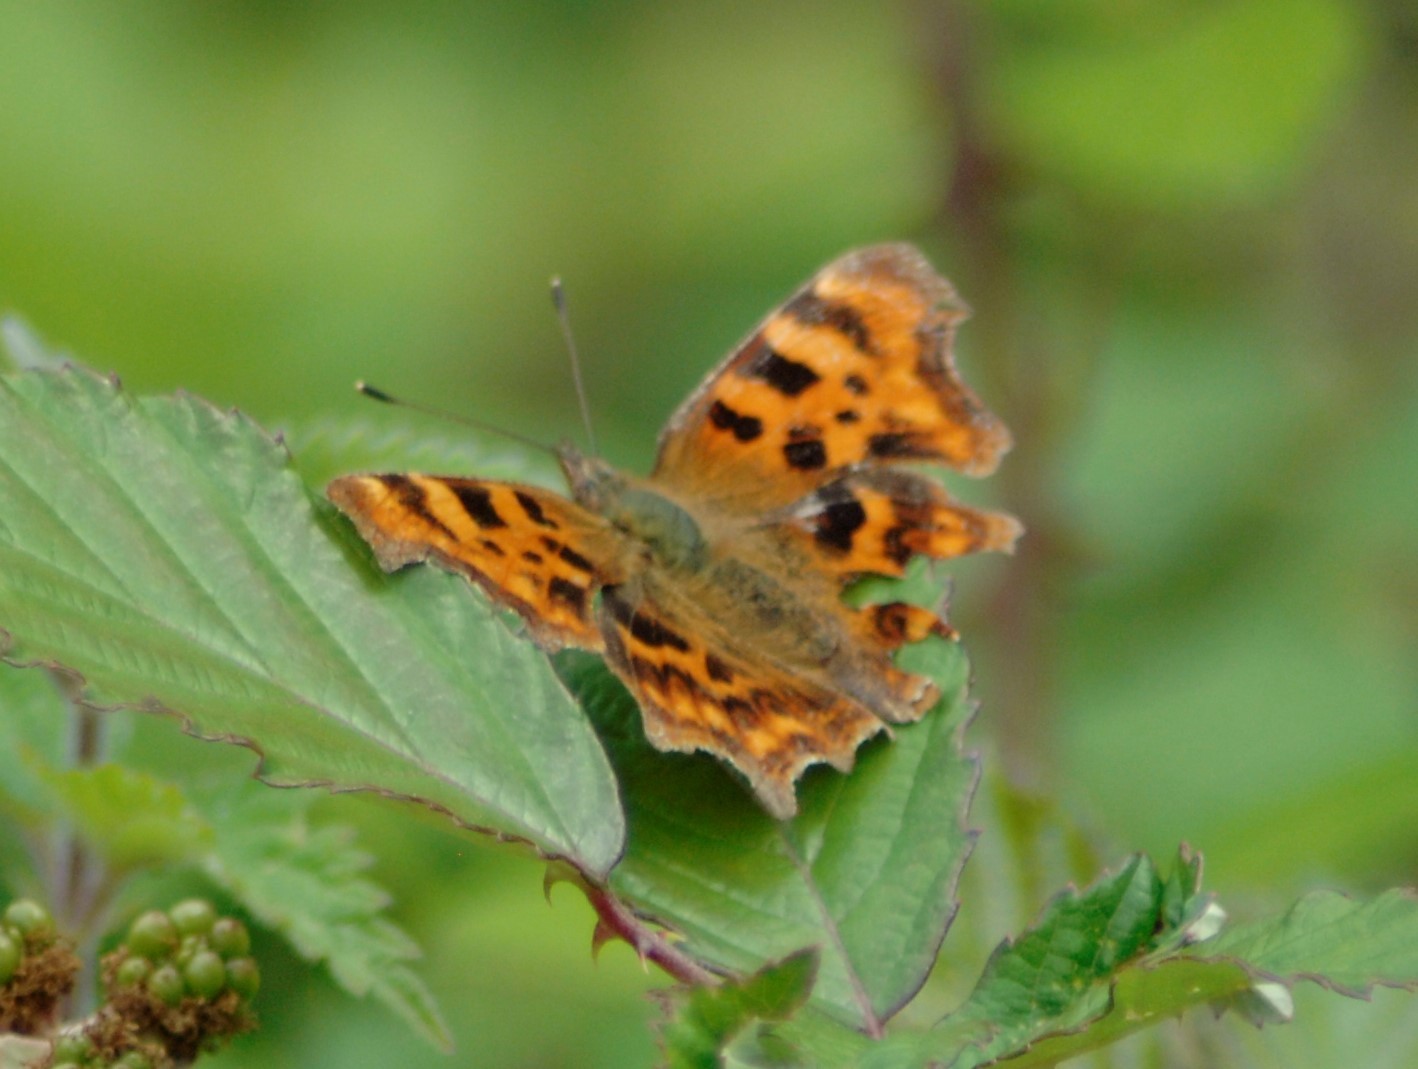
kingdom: Animalia
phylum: Arthropoda
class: Insecta
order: Lepidoptera
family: Nymphalidae
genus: Polygonia
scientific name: Polygonia c-album
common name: Comma
